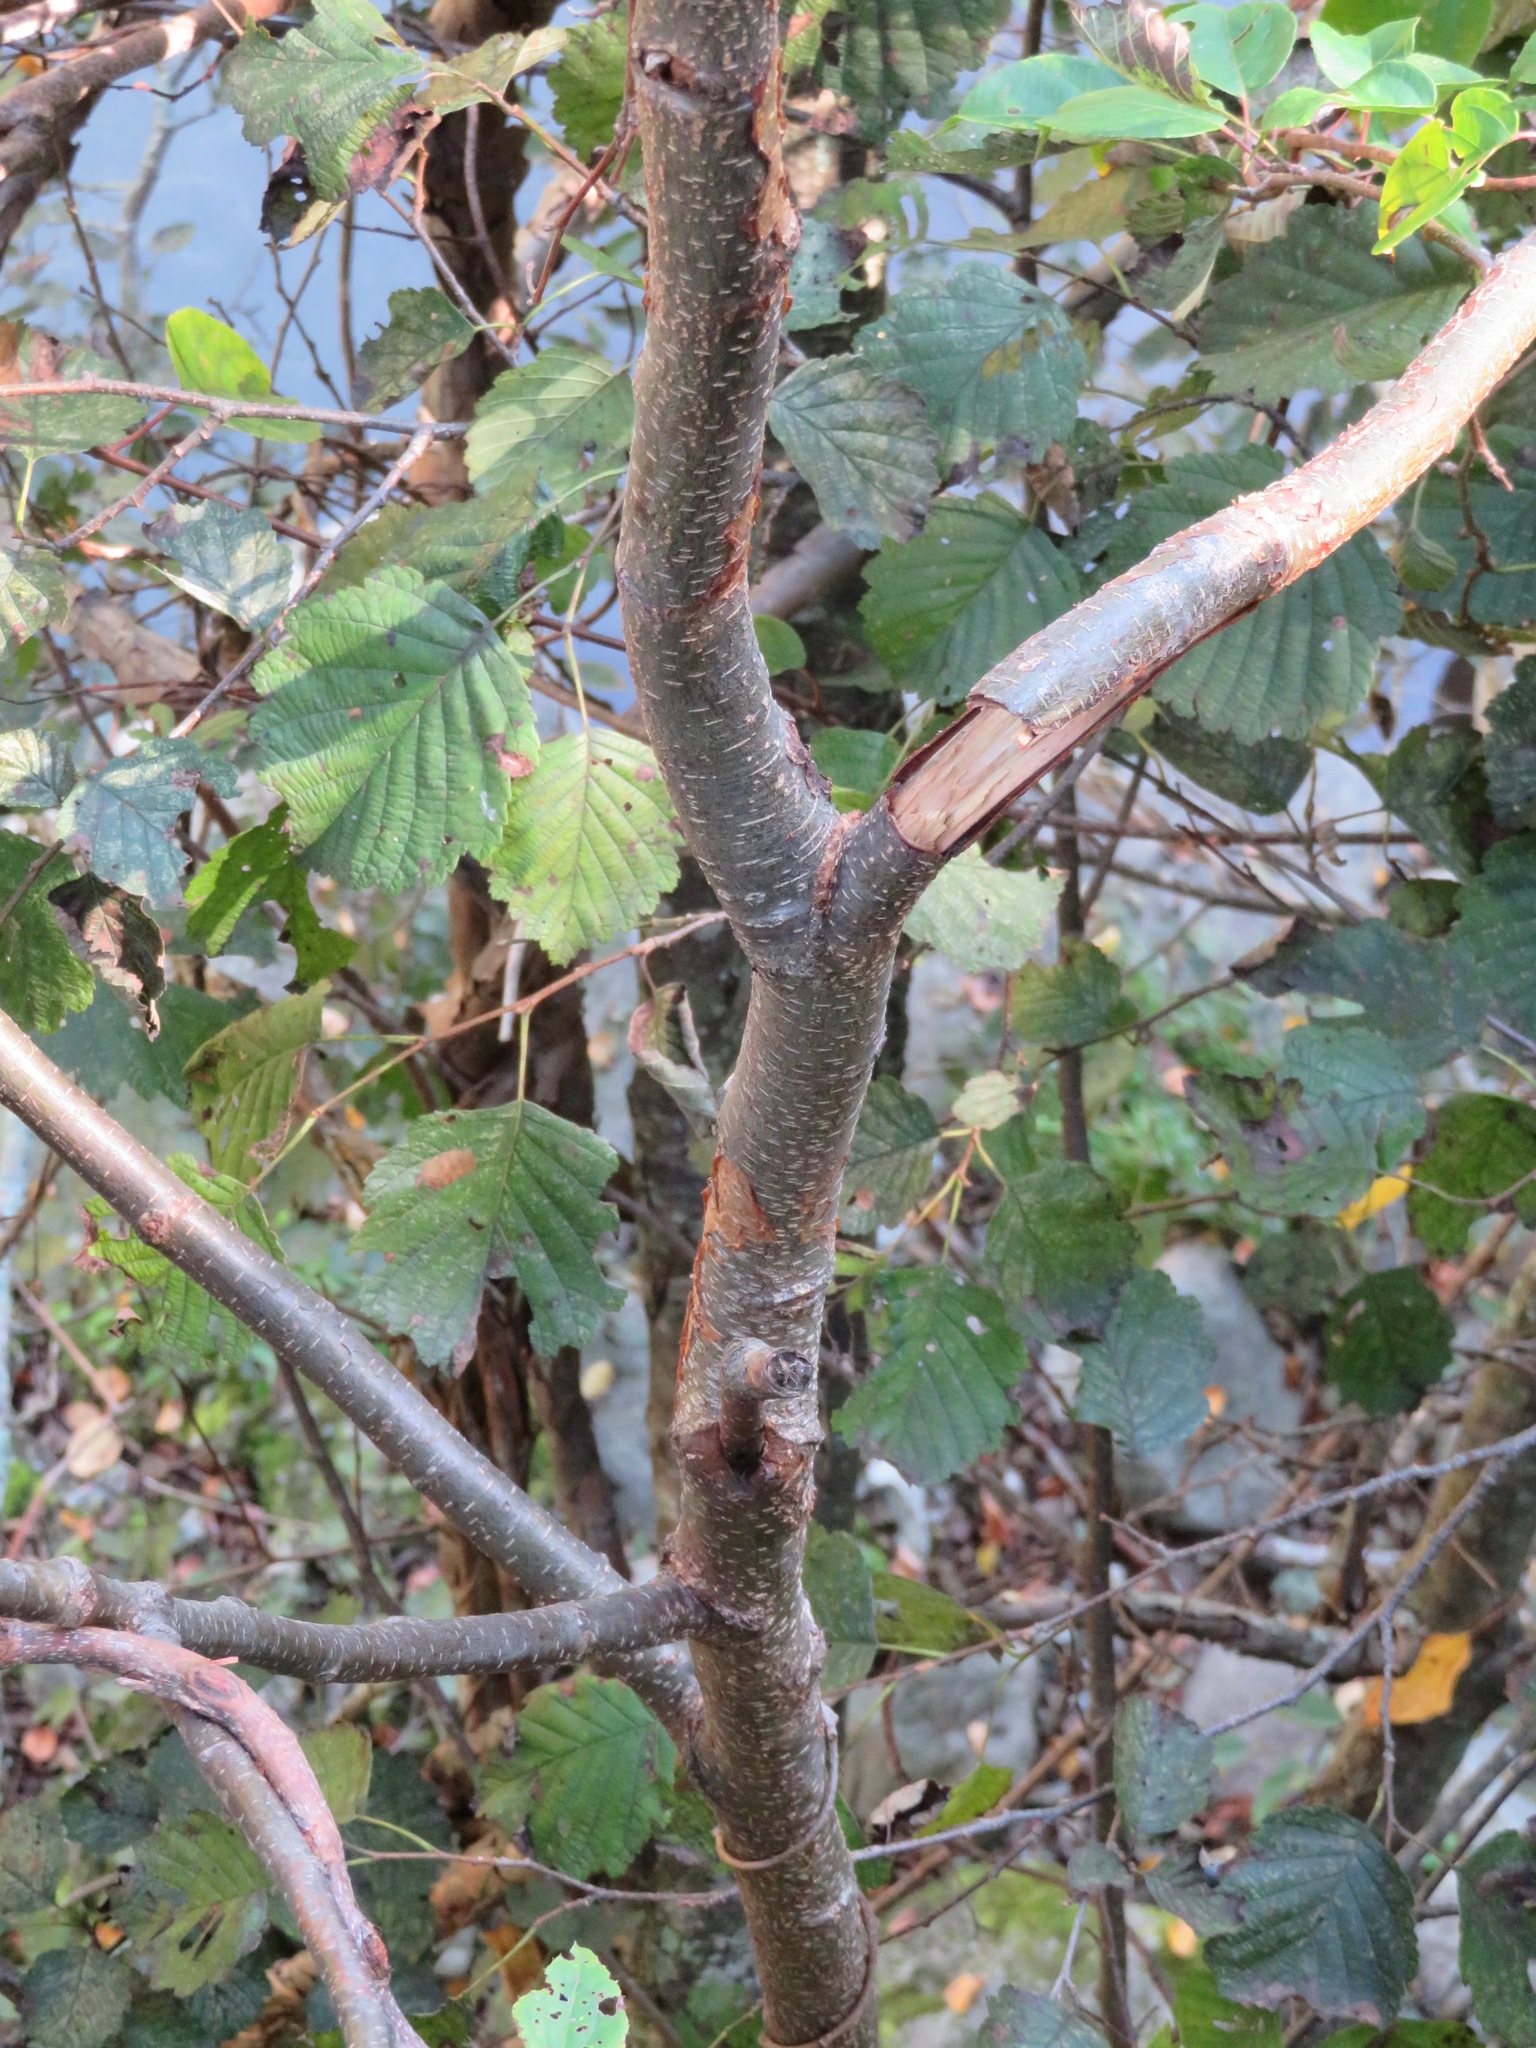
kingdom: Plantae
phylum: Tracheophyta
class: Magnoliopsida
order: Fagales
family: Betulaceae
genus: Alnus
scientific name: Alnus hirsuta
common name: Manchurian alder
